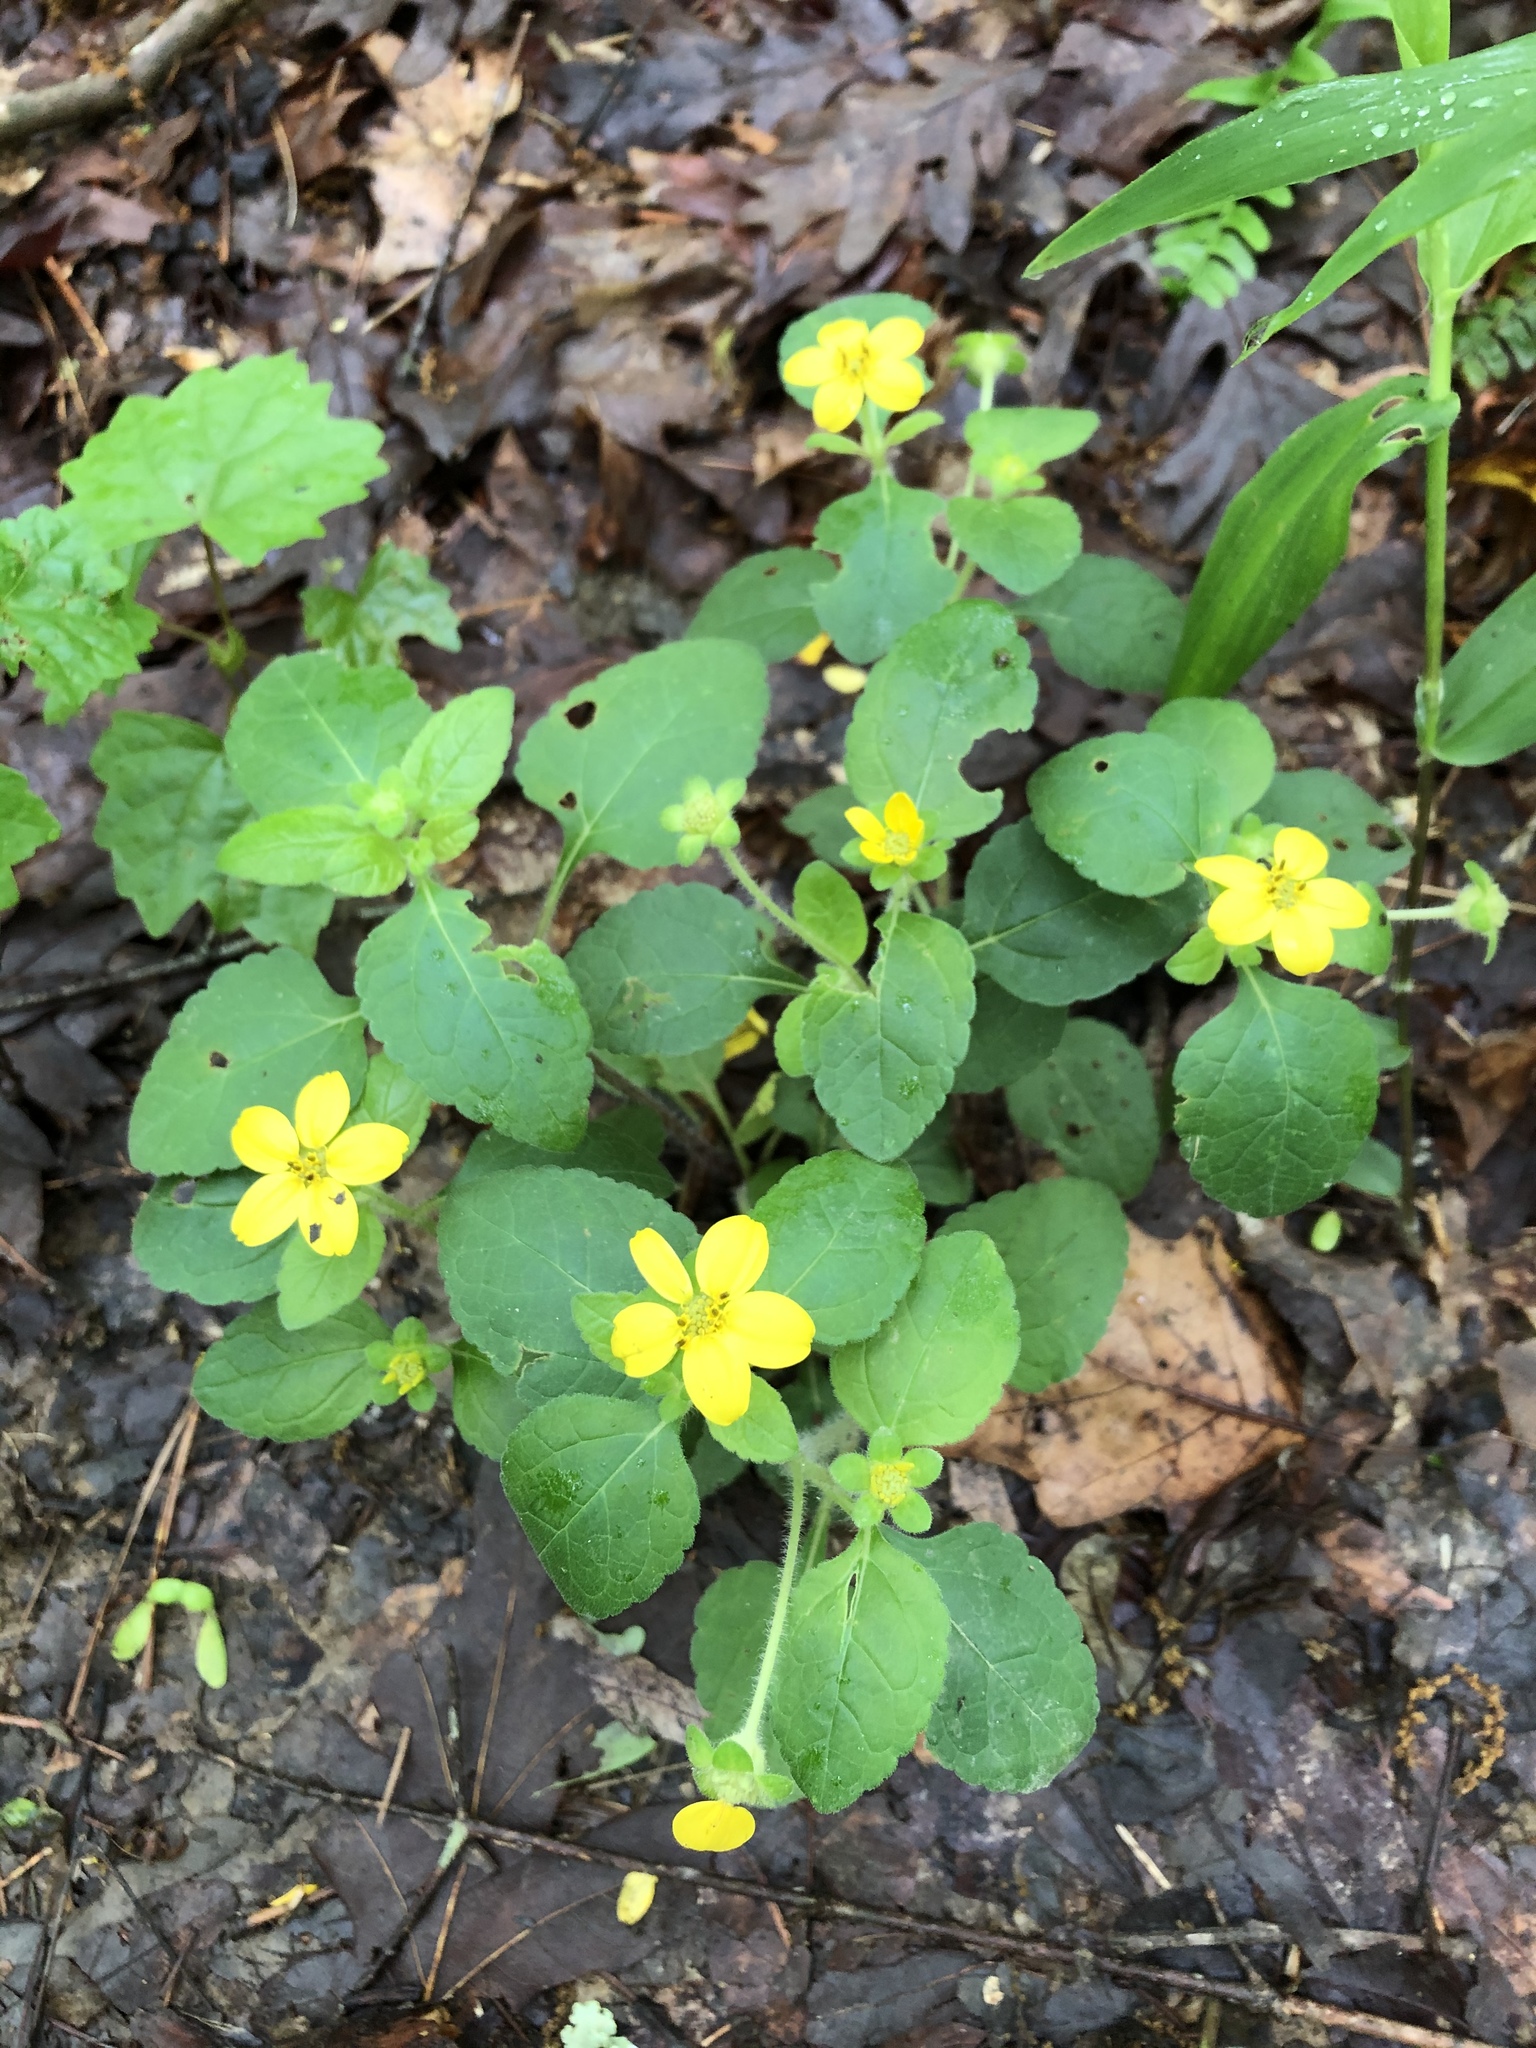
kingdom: Plantae
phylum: Tracheophyta
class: Magnoliopsida
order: Asterales
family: Asteraceae
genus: Chrysogonum
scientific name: Chrysogonum virginianum
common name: Golden-knee
